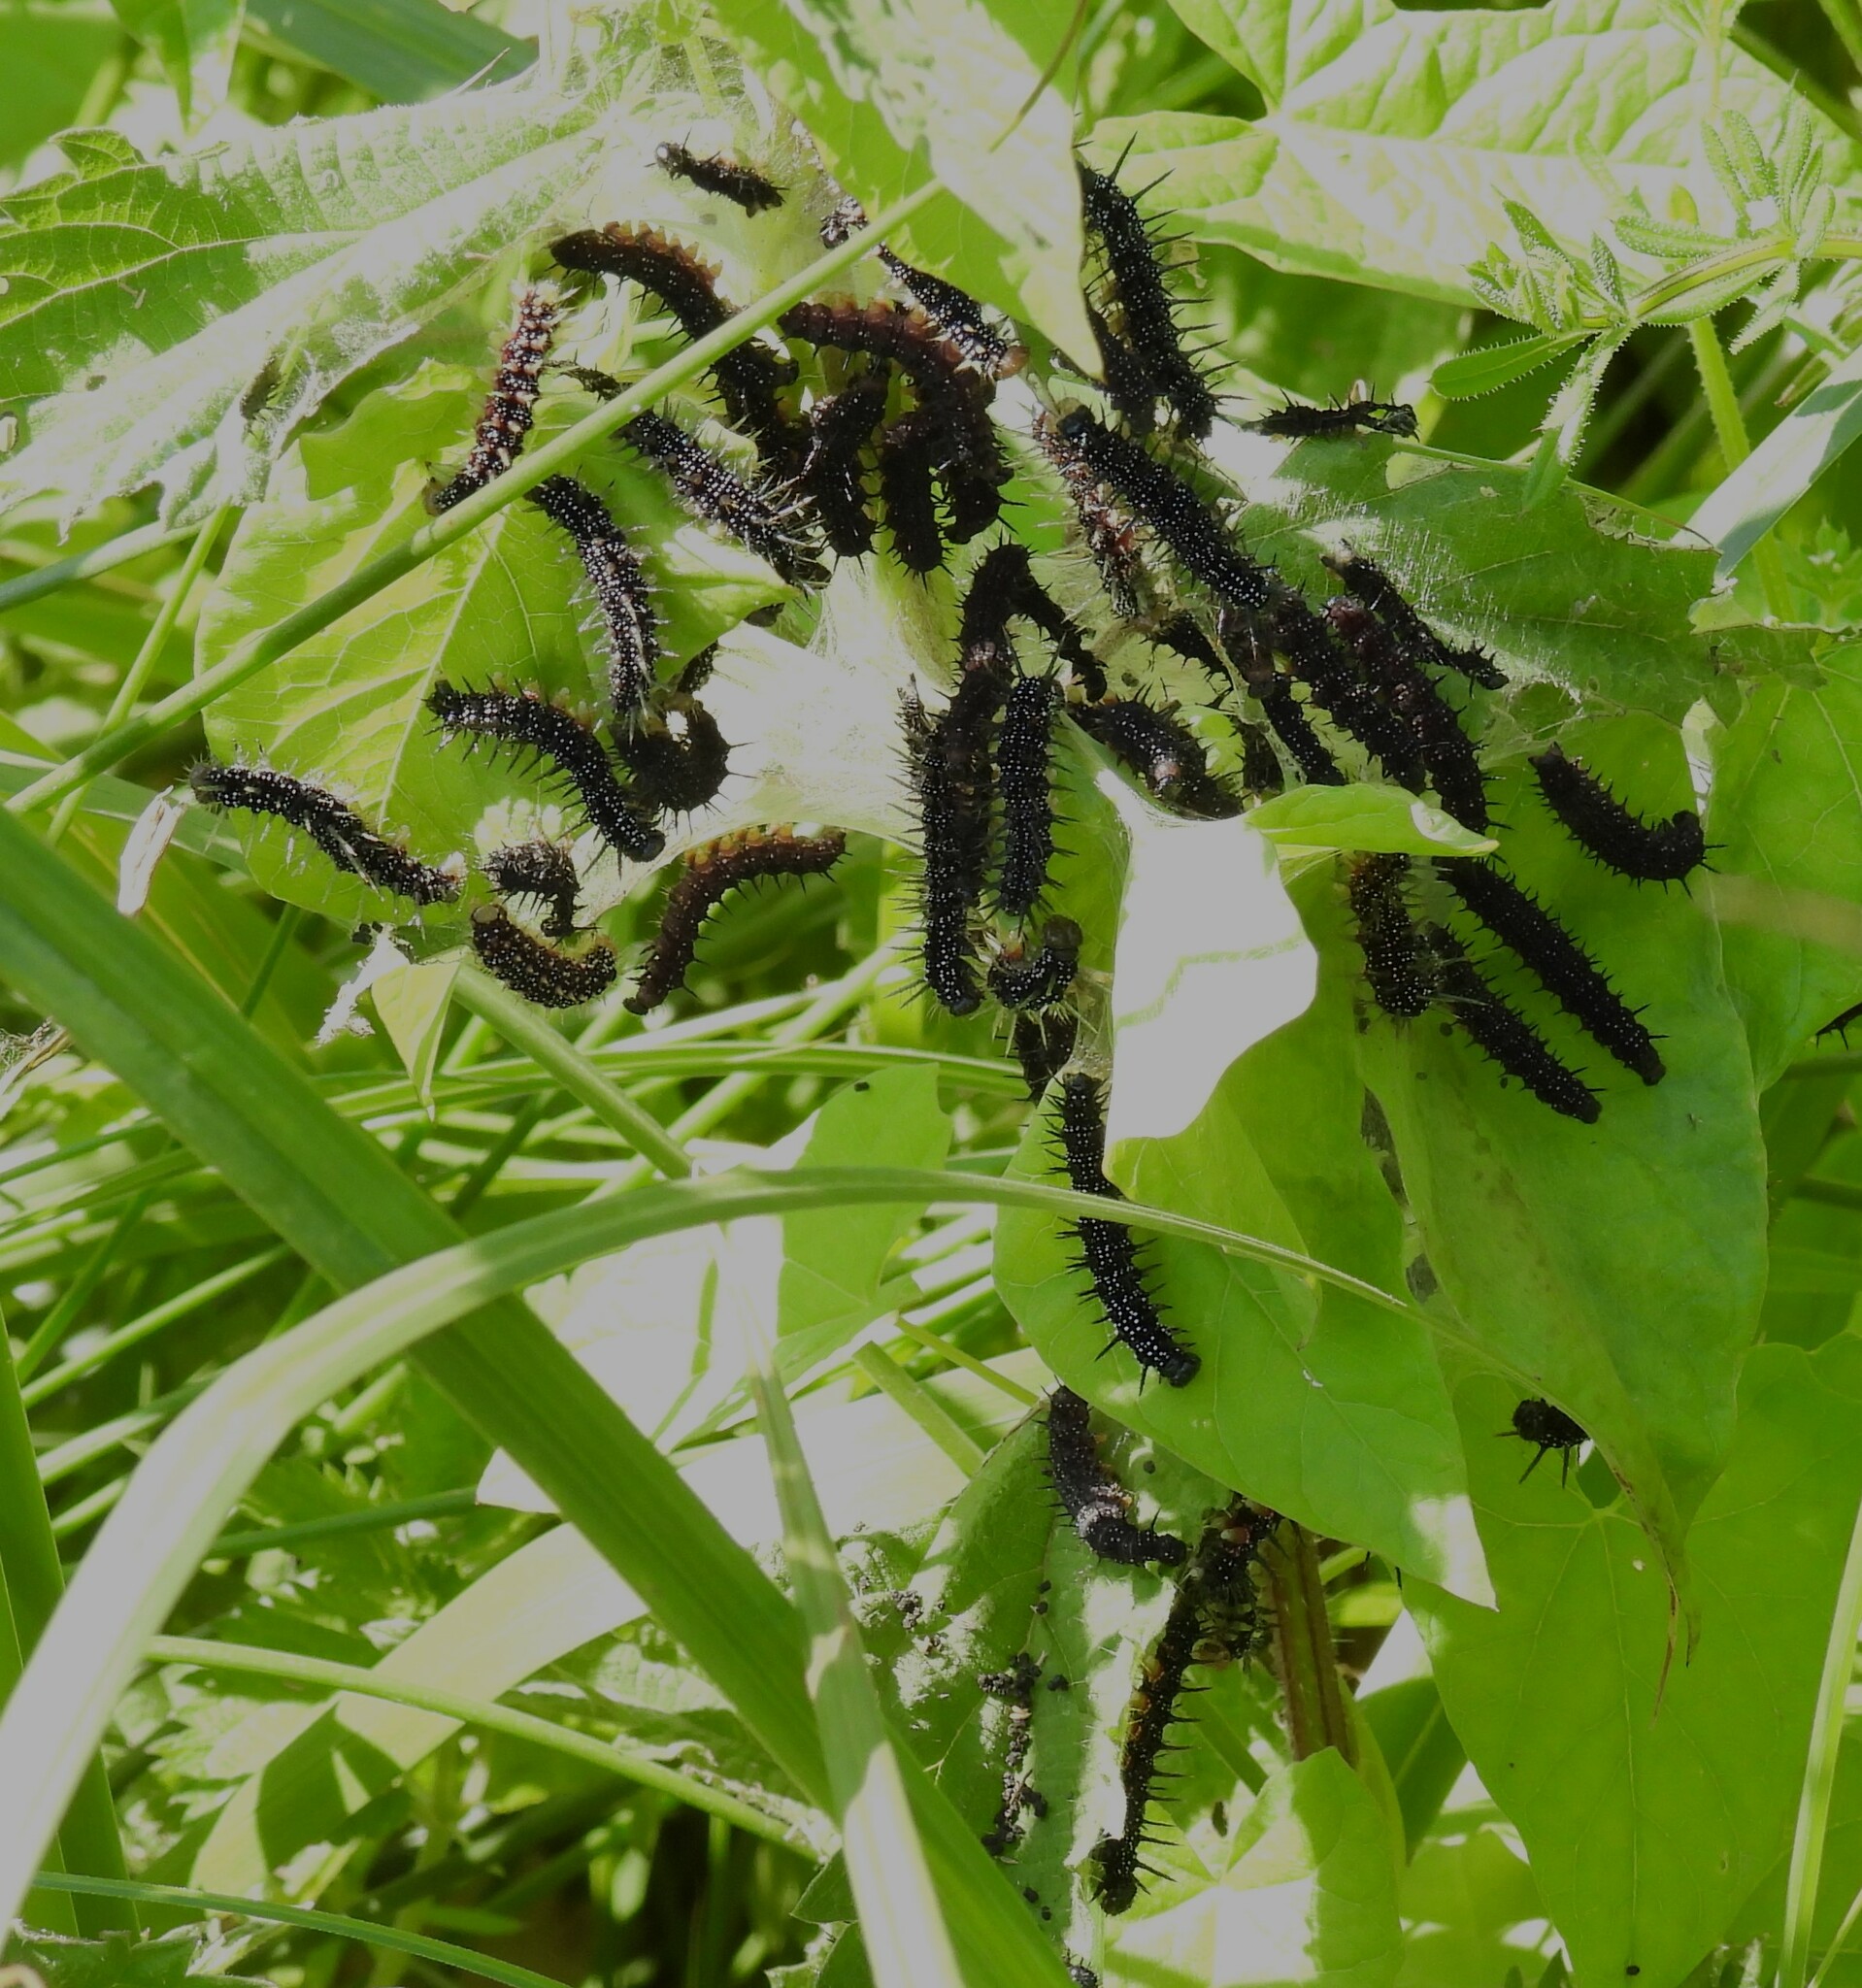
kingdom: Animalia
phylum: Arthropoda
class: Insecta
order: Lepidoptera
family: Nymphalidae
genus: Aglais
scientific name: Aglais io
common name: Peacock
